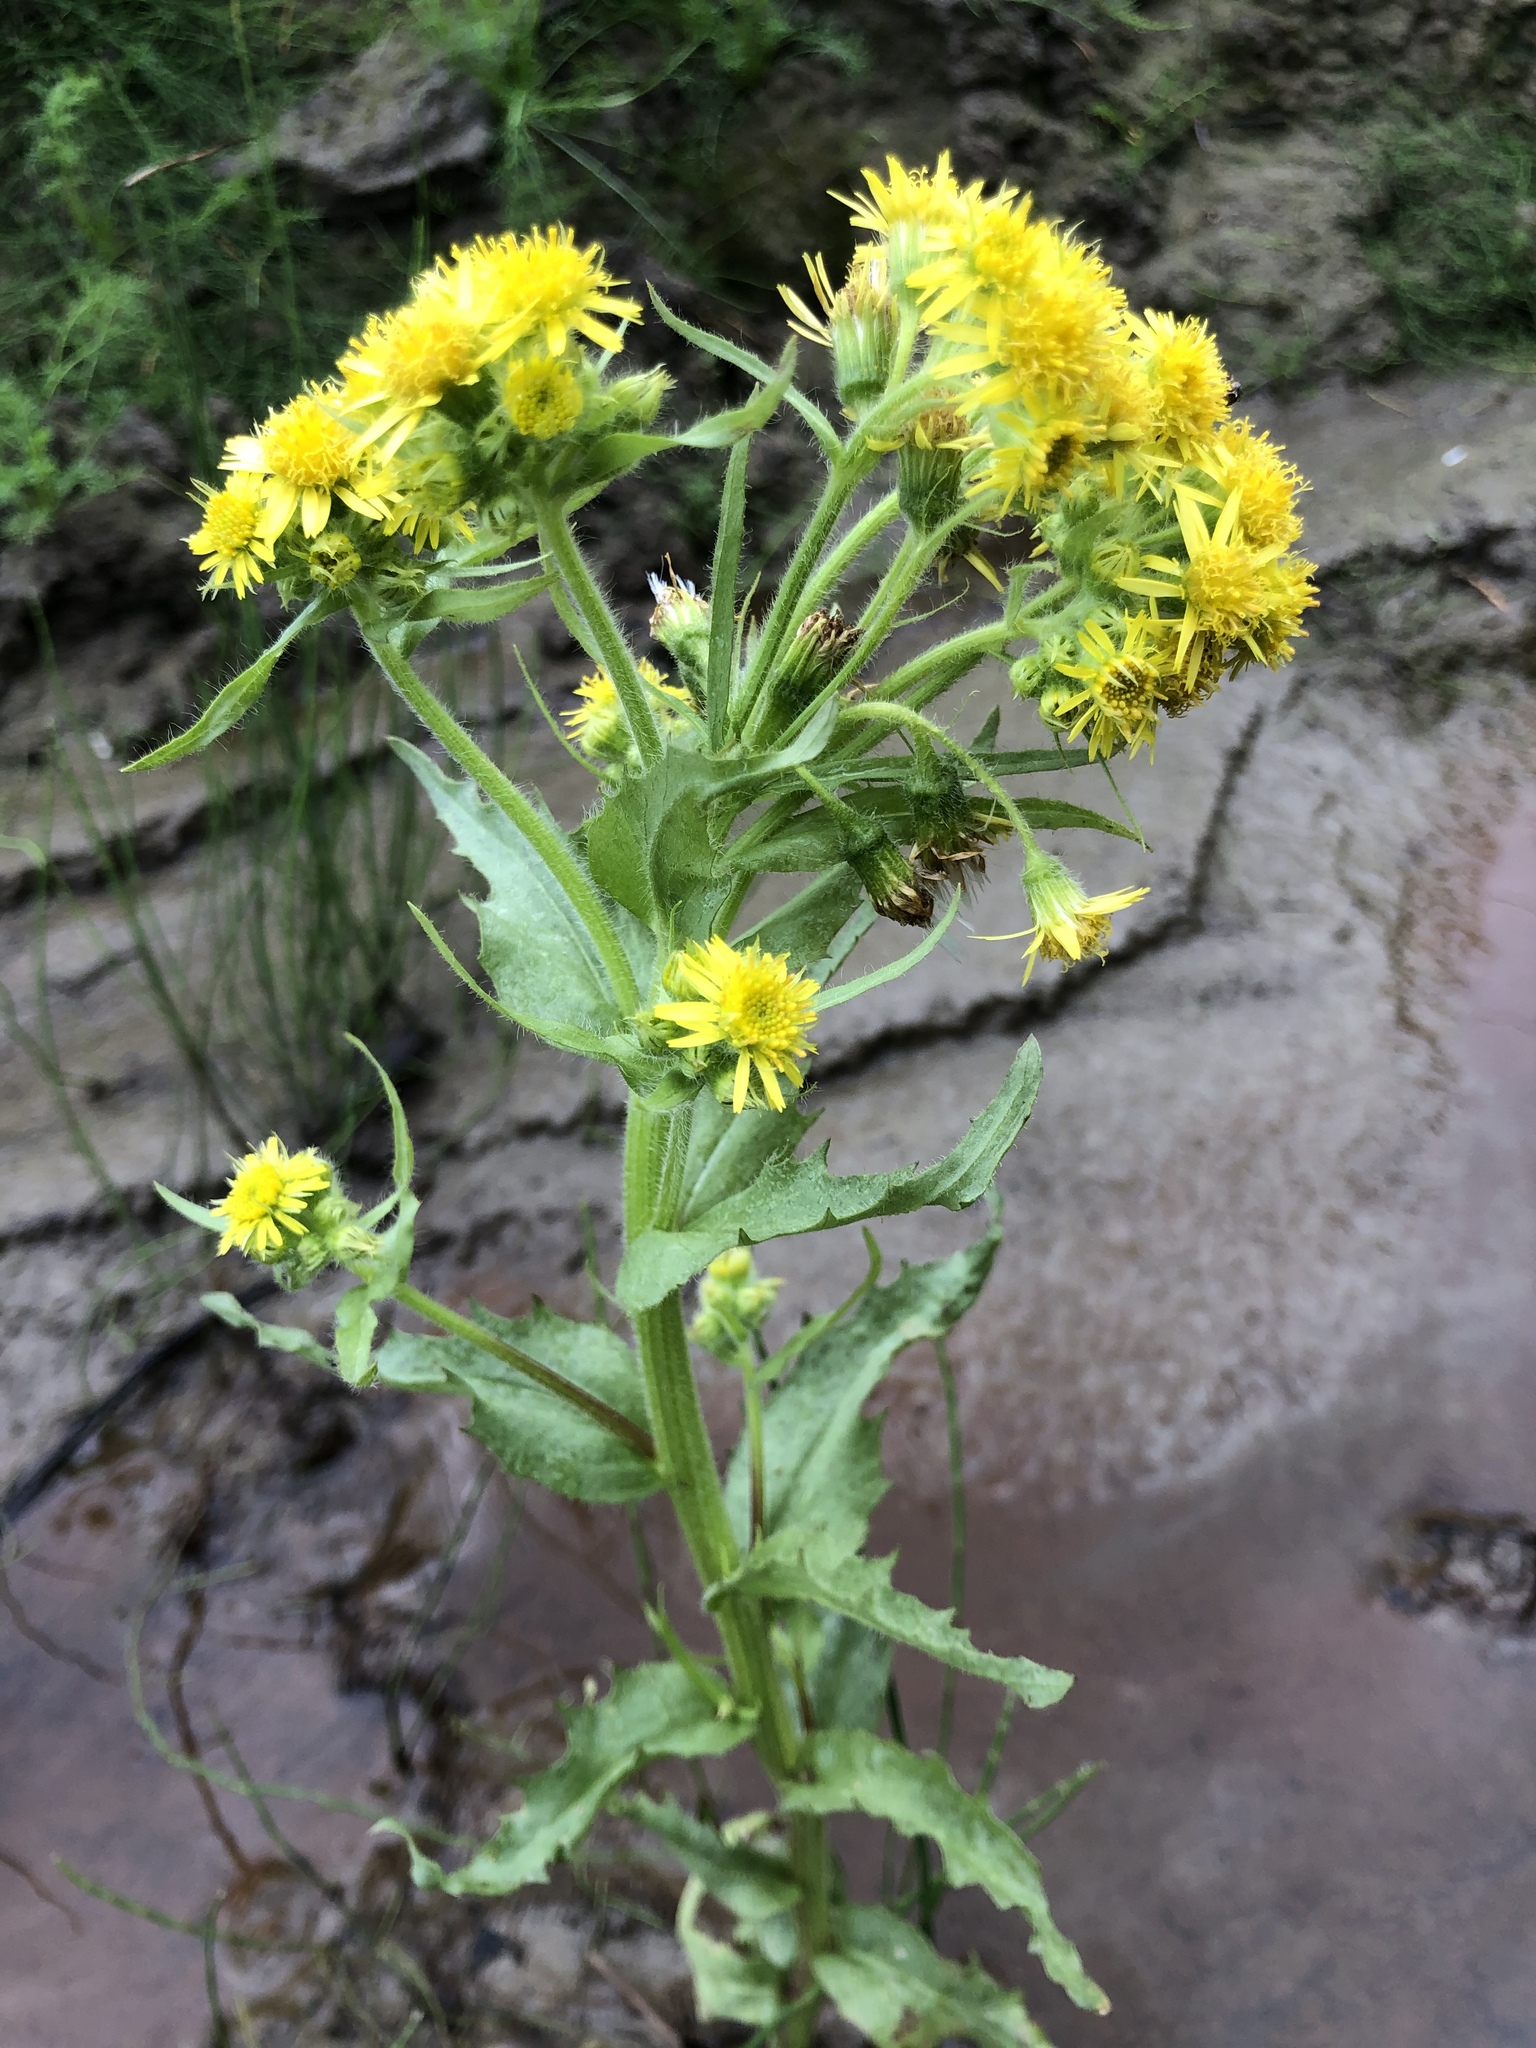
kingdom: Plantae
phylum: Tracheophyta
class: Magnoliopsida
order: Asterales
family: Asteraceae
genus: Tephroseris
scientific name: Tephroseris palustris
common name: Marsh fleawort
